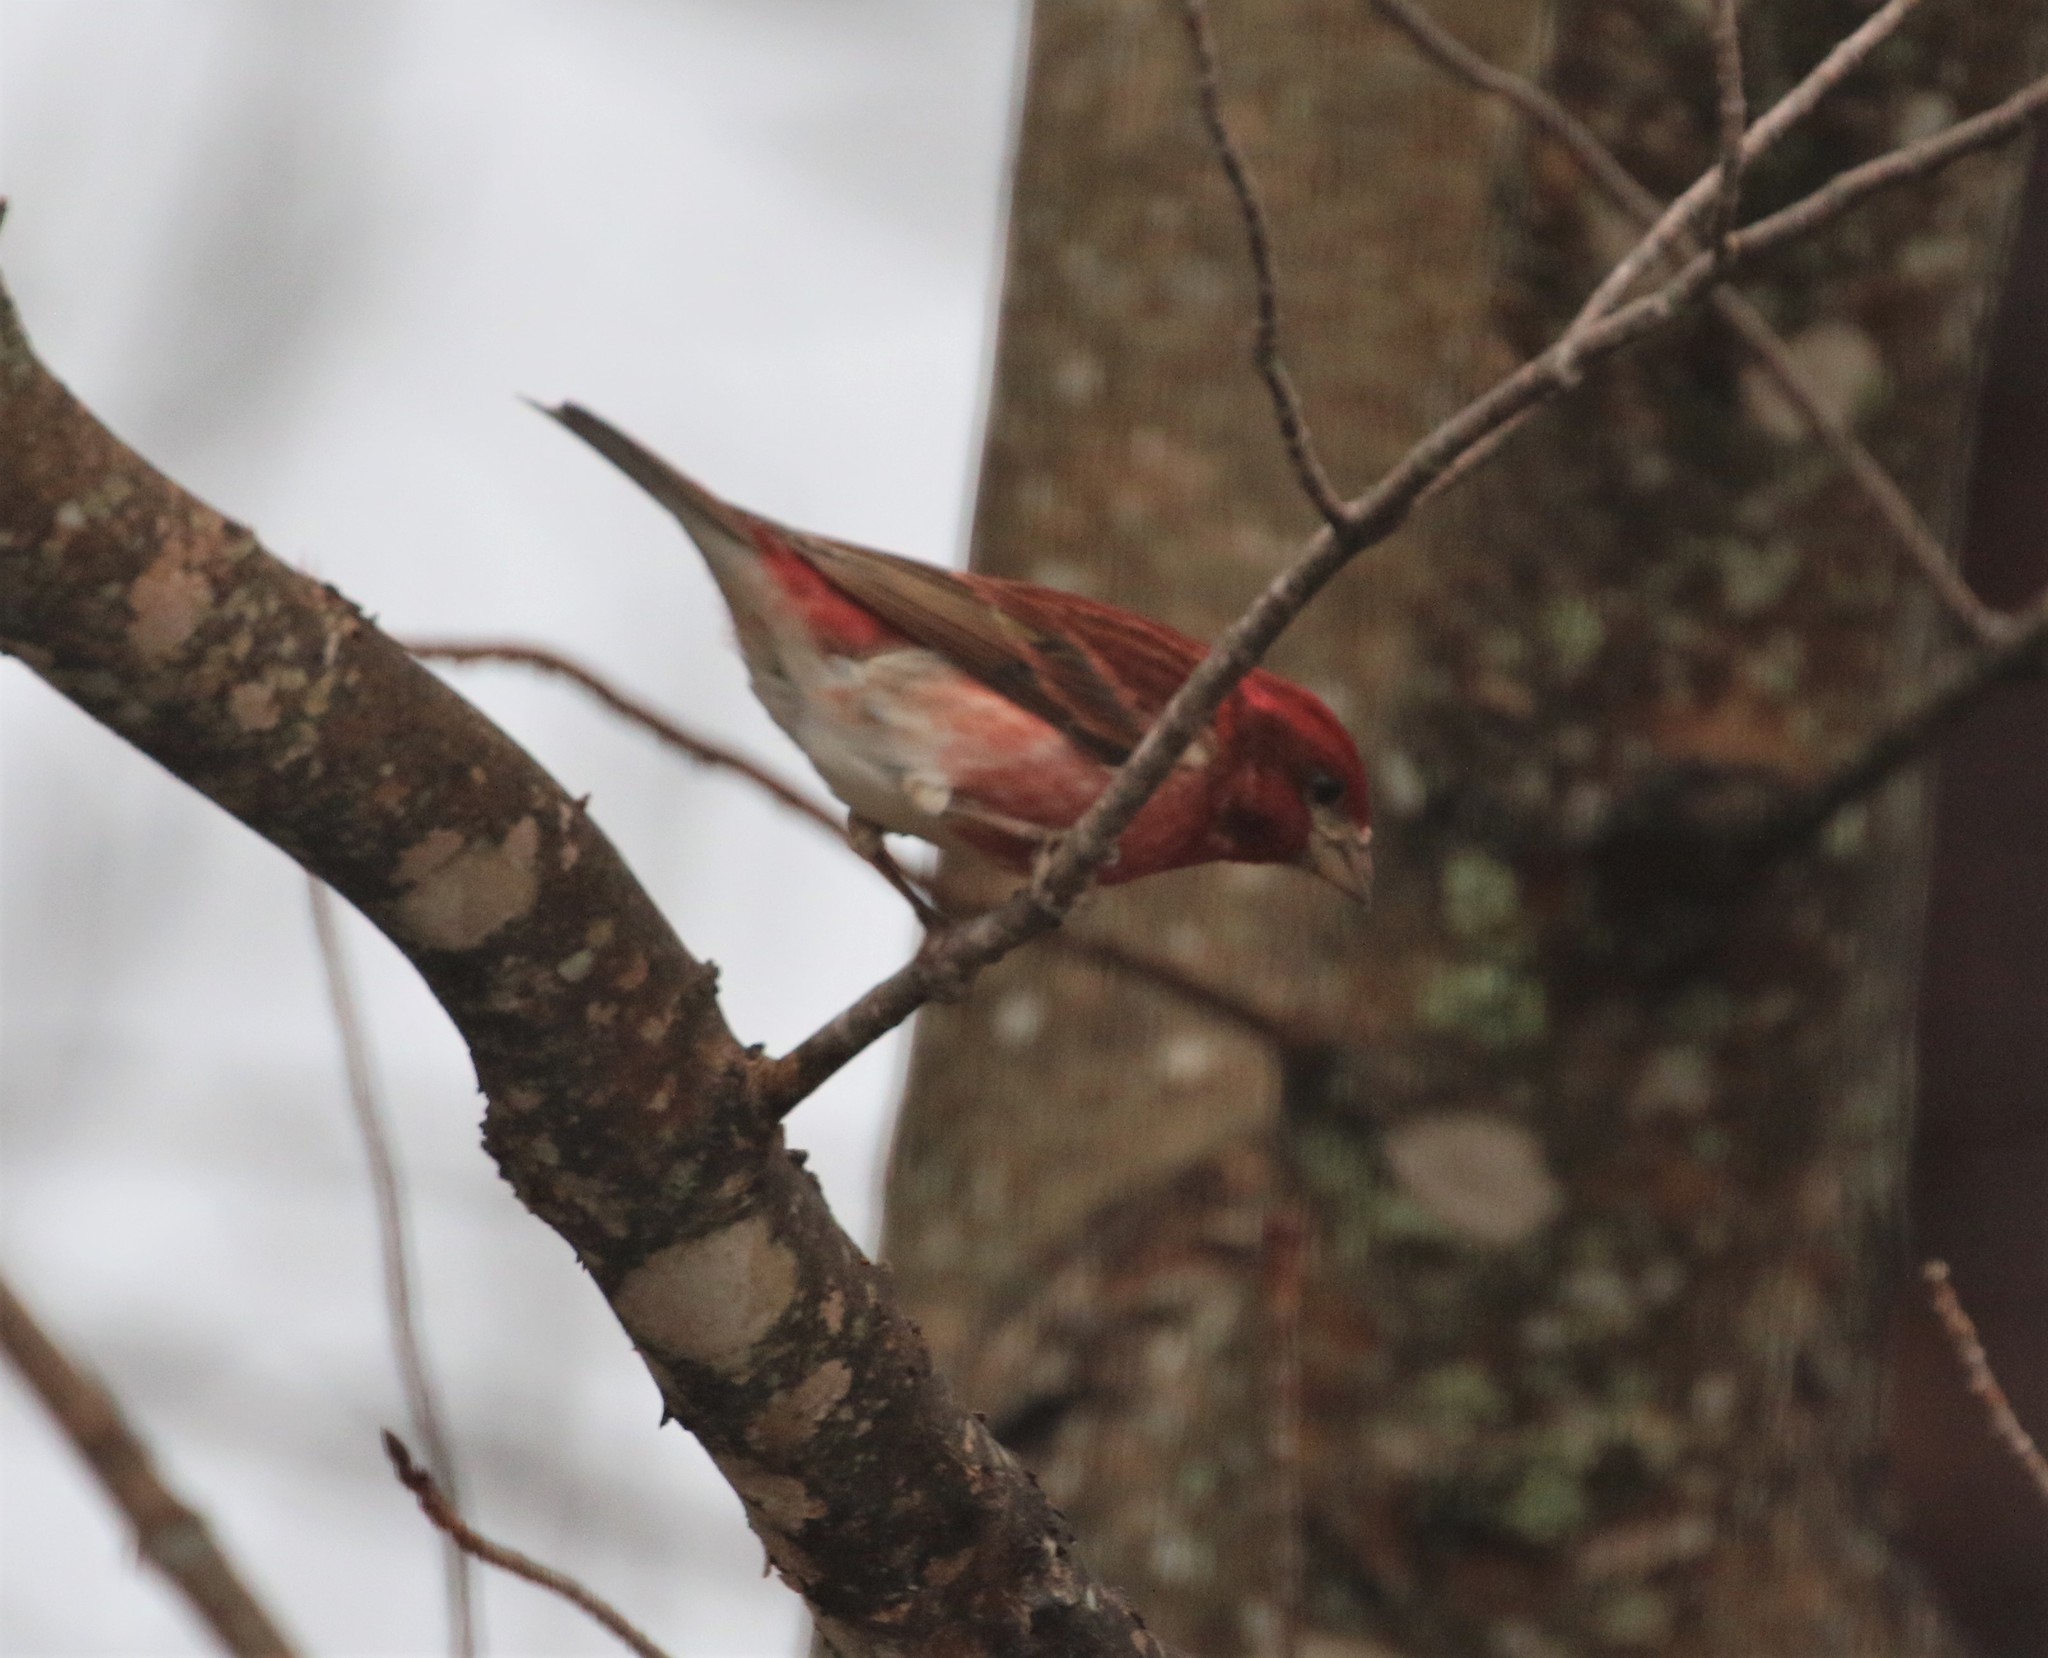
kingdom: Animalia
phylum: Chordata
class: Aves
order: Passeriformes
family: Fringillidae
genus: Haemorhous
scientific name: Haemorhous purpureus
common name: Purple finch
